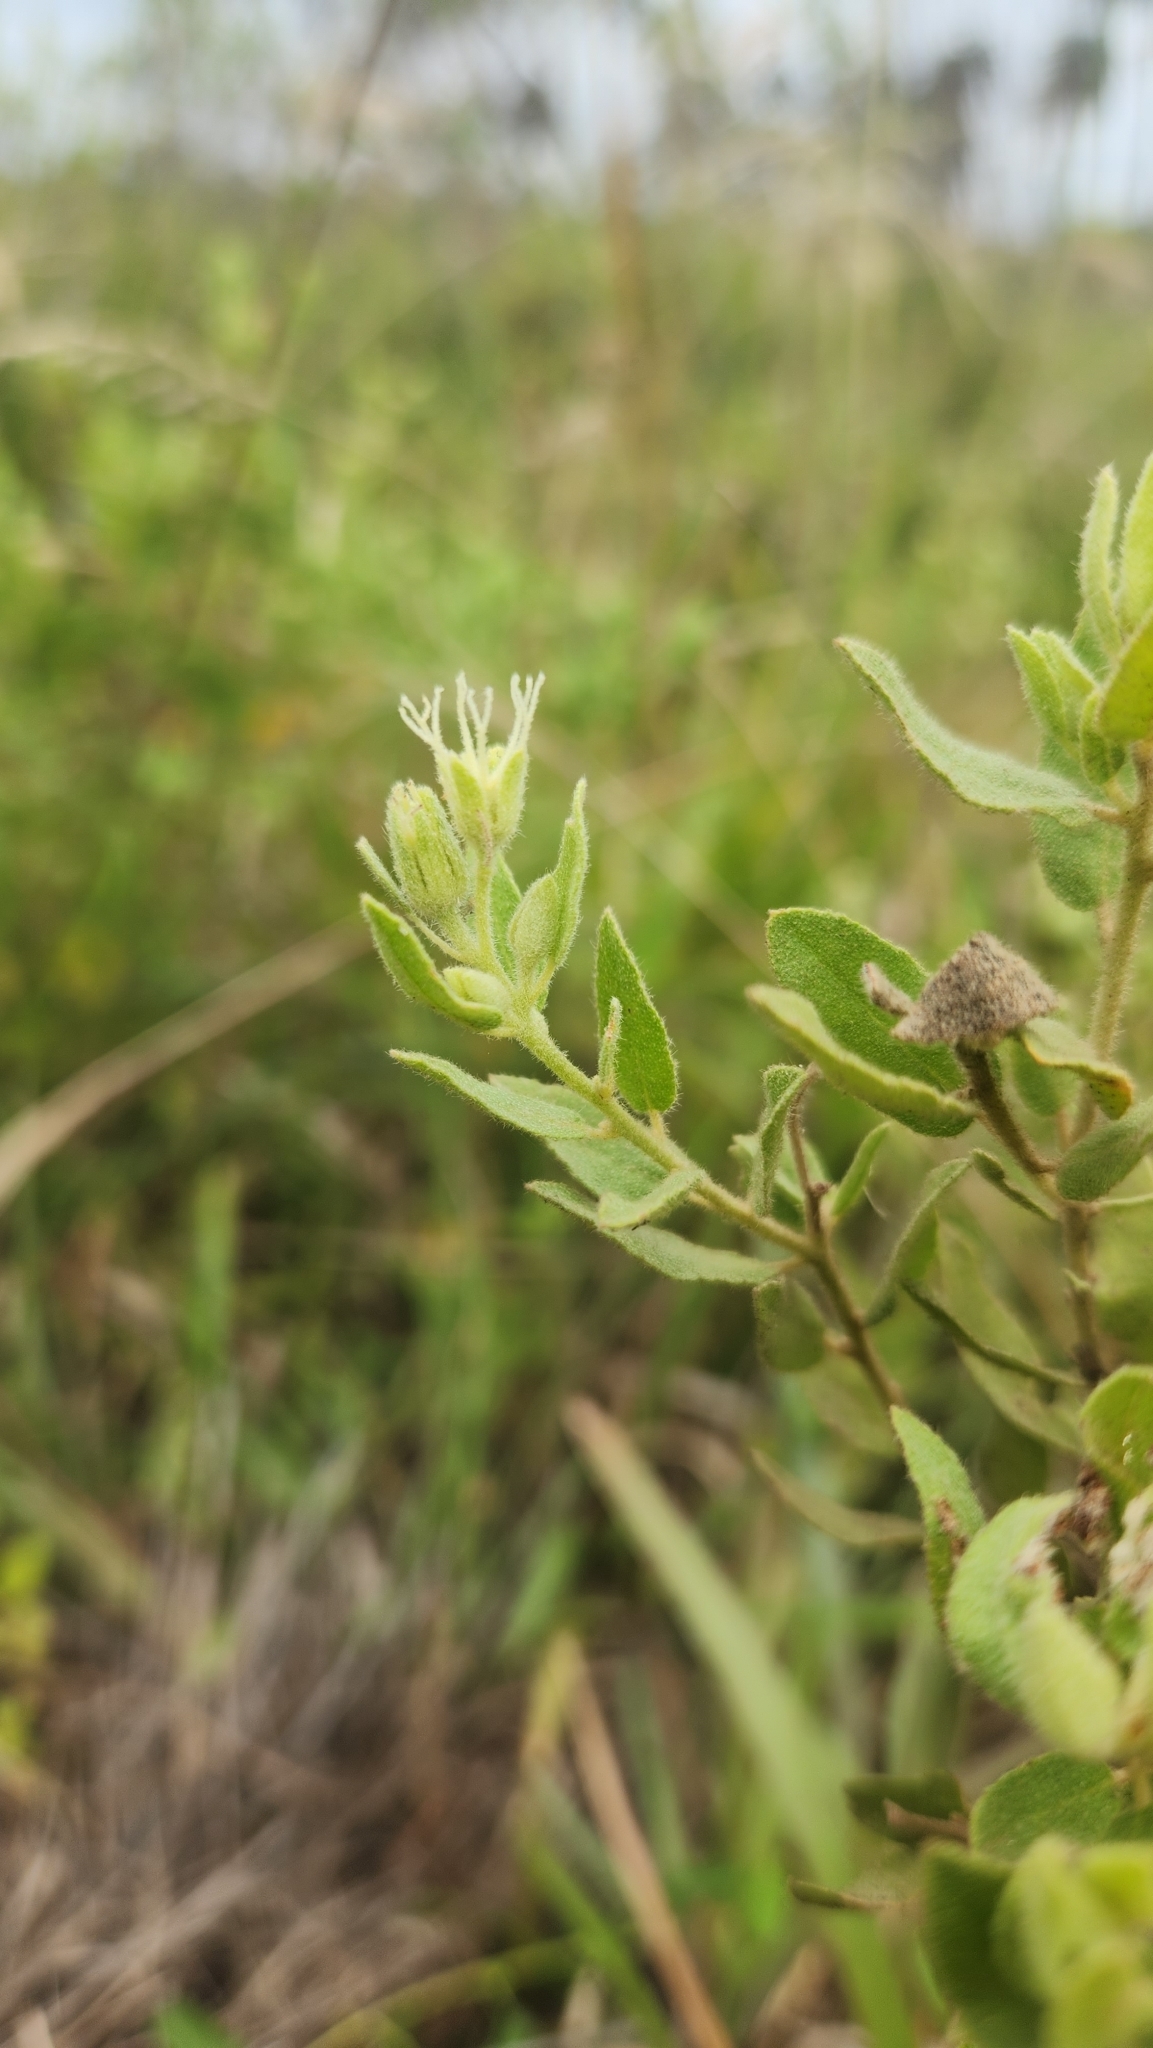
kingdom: Plantae
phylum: Tracheophyta
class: Magnoliopsida
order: Malpighiales
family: Euphorbiaceae
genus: Croton
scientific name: Croton laureltyanus
